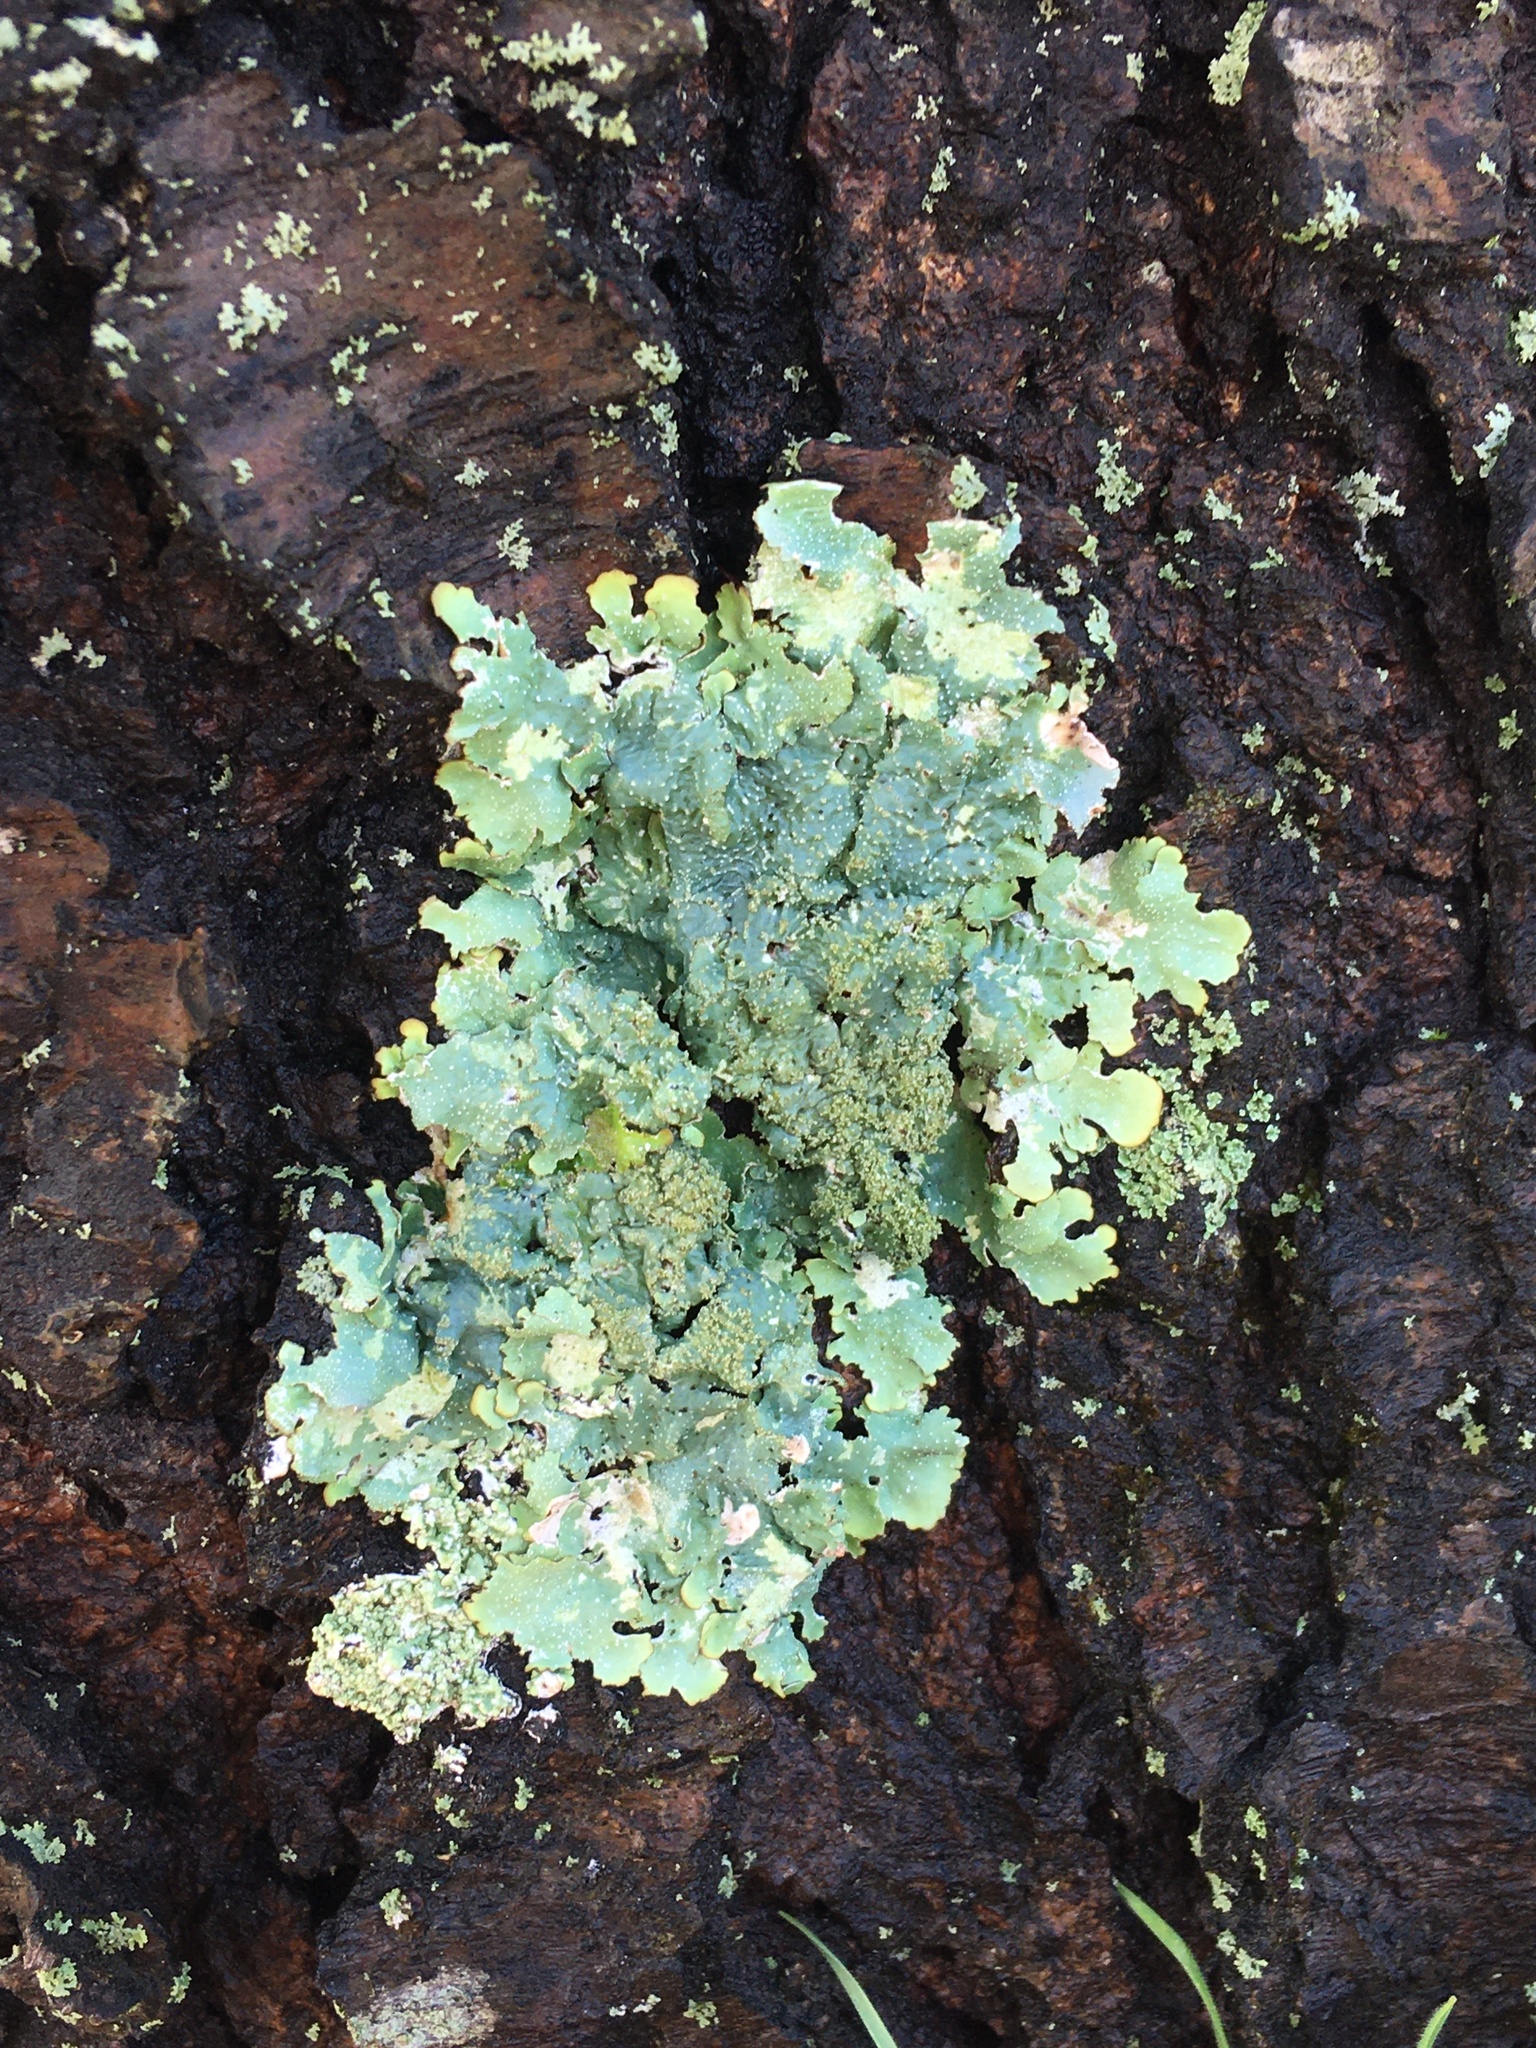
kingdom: Fungi
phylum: Ascomycota
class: Lecanoromycetes
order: Lecanorales
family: Parmeliaceae
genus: Punctelia
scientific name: Punctelia rudecta
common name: Rough speckled shield lichen
